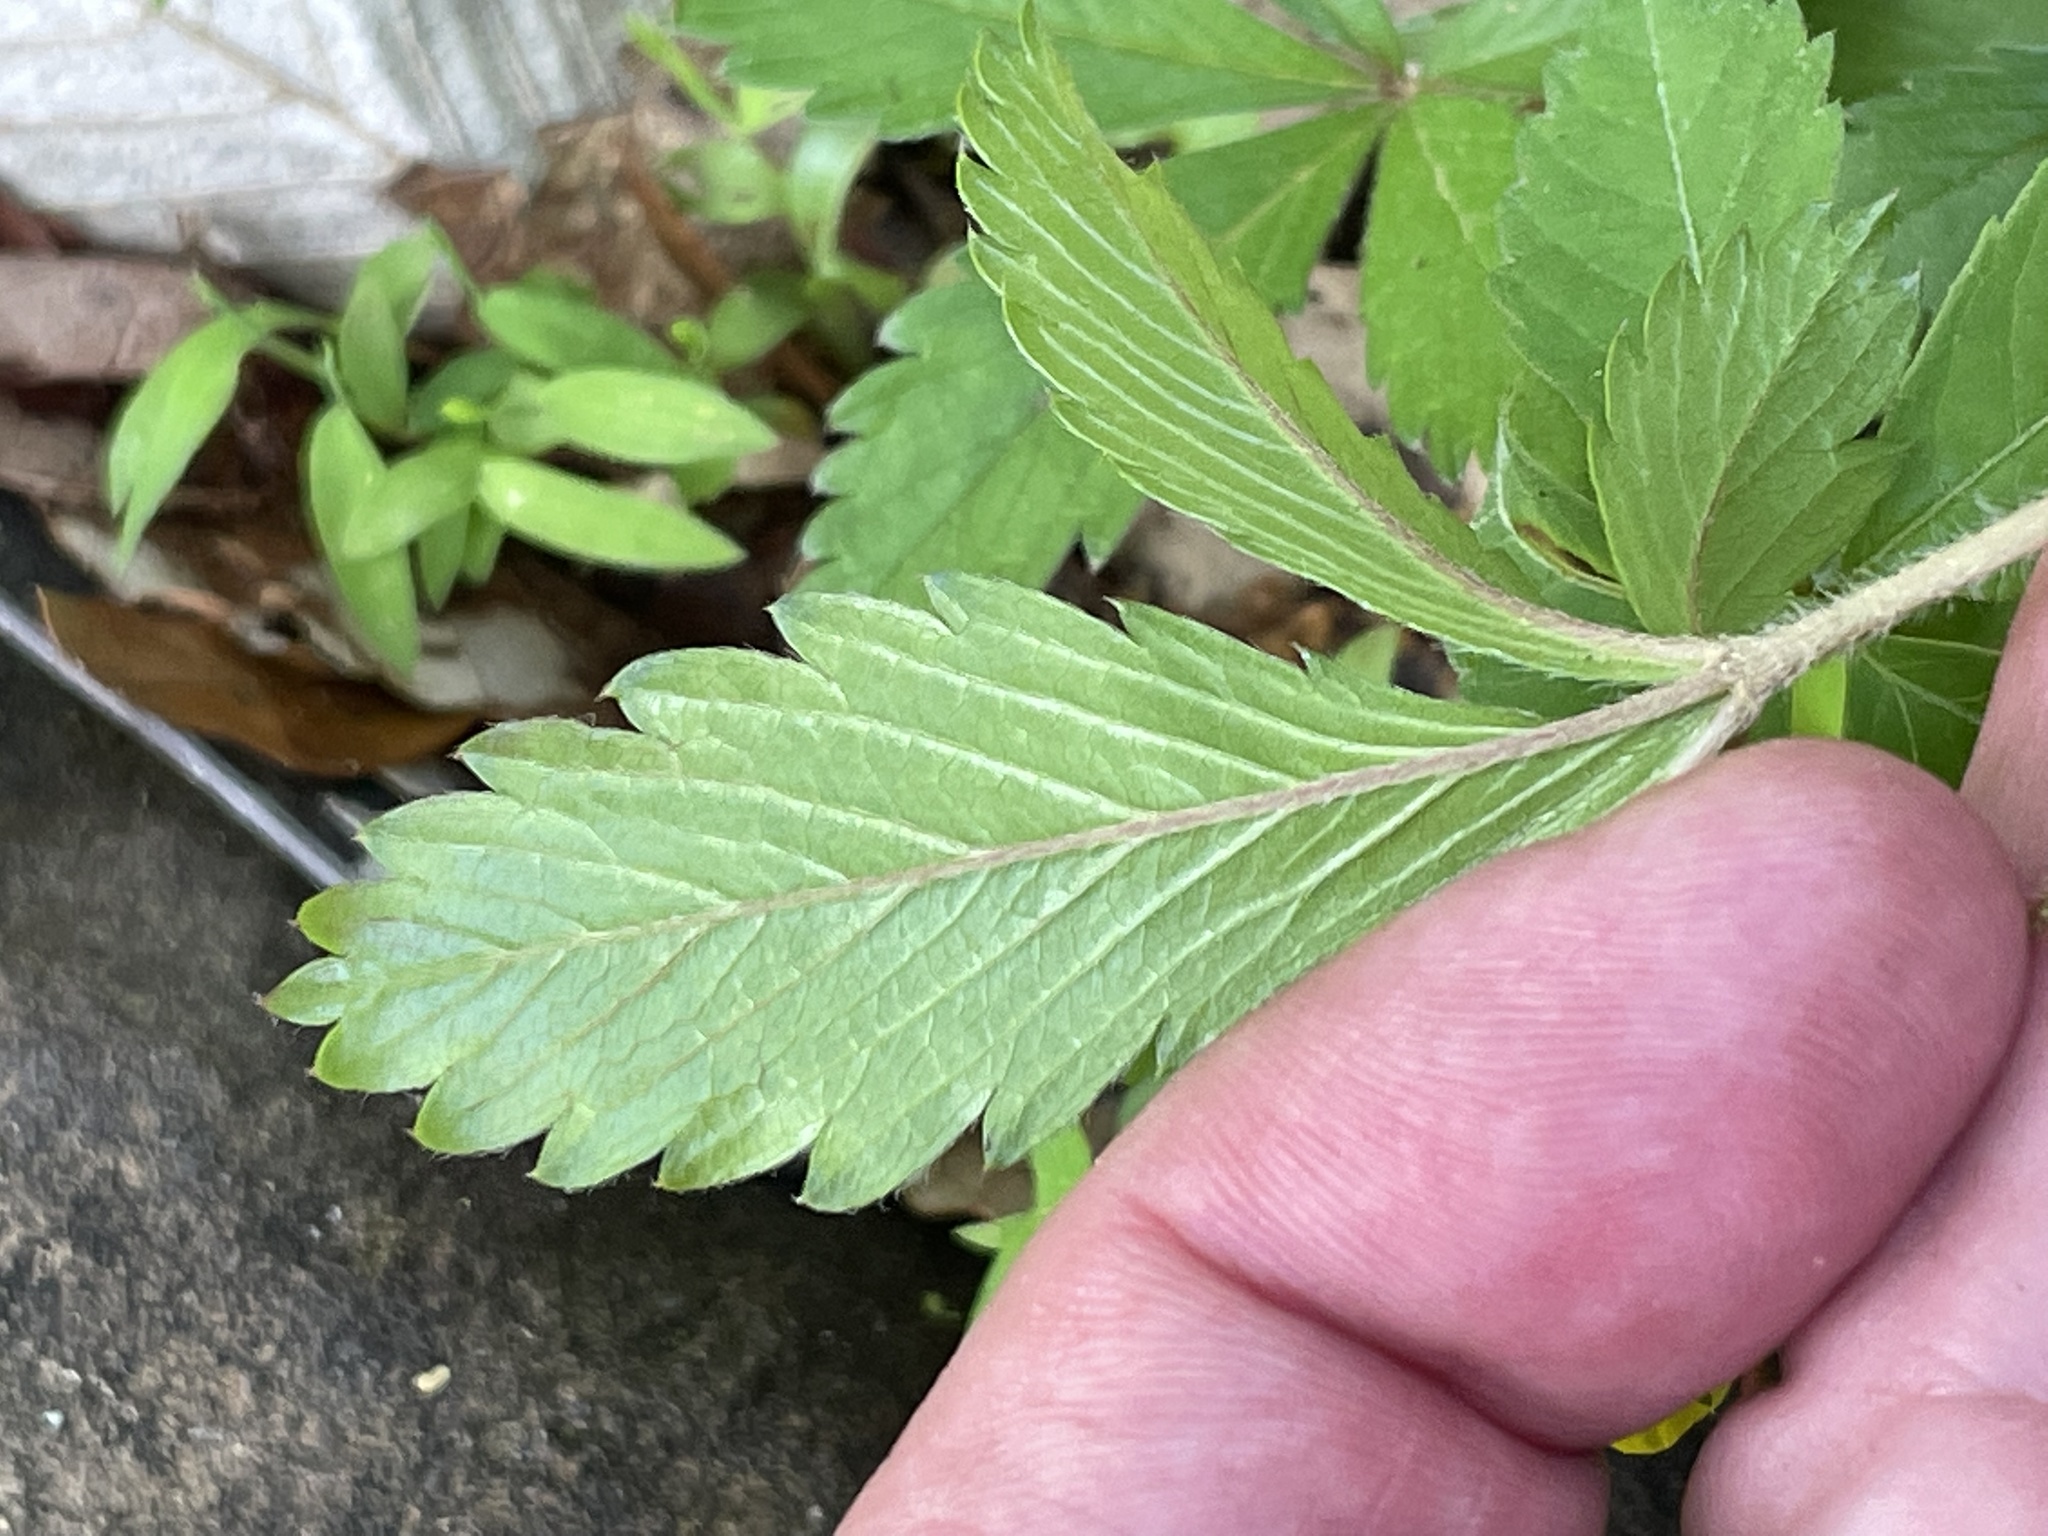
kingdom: Plantae
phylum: Tracheophyta
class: Magnoliopsida
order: Rosales
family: Rosaceae
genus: Potentilla
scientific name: Potentilla simplex
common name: Old field cinquefoil
